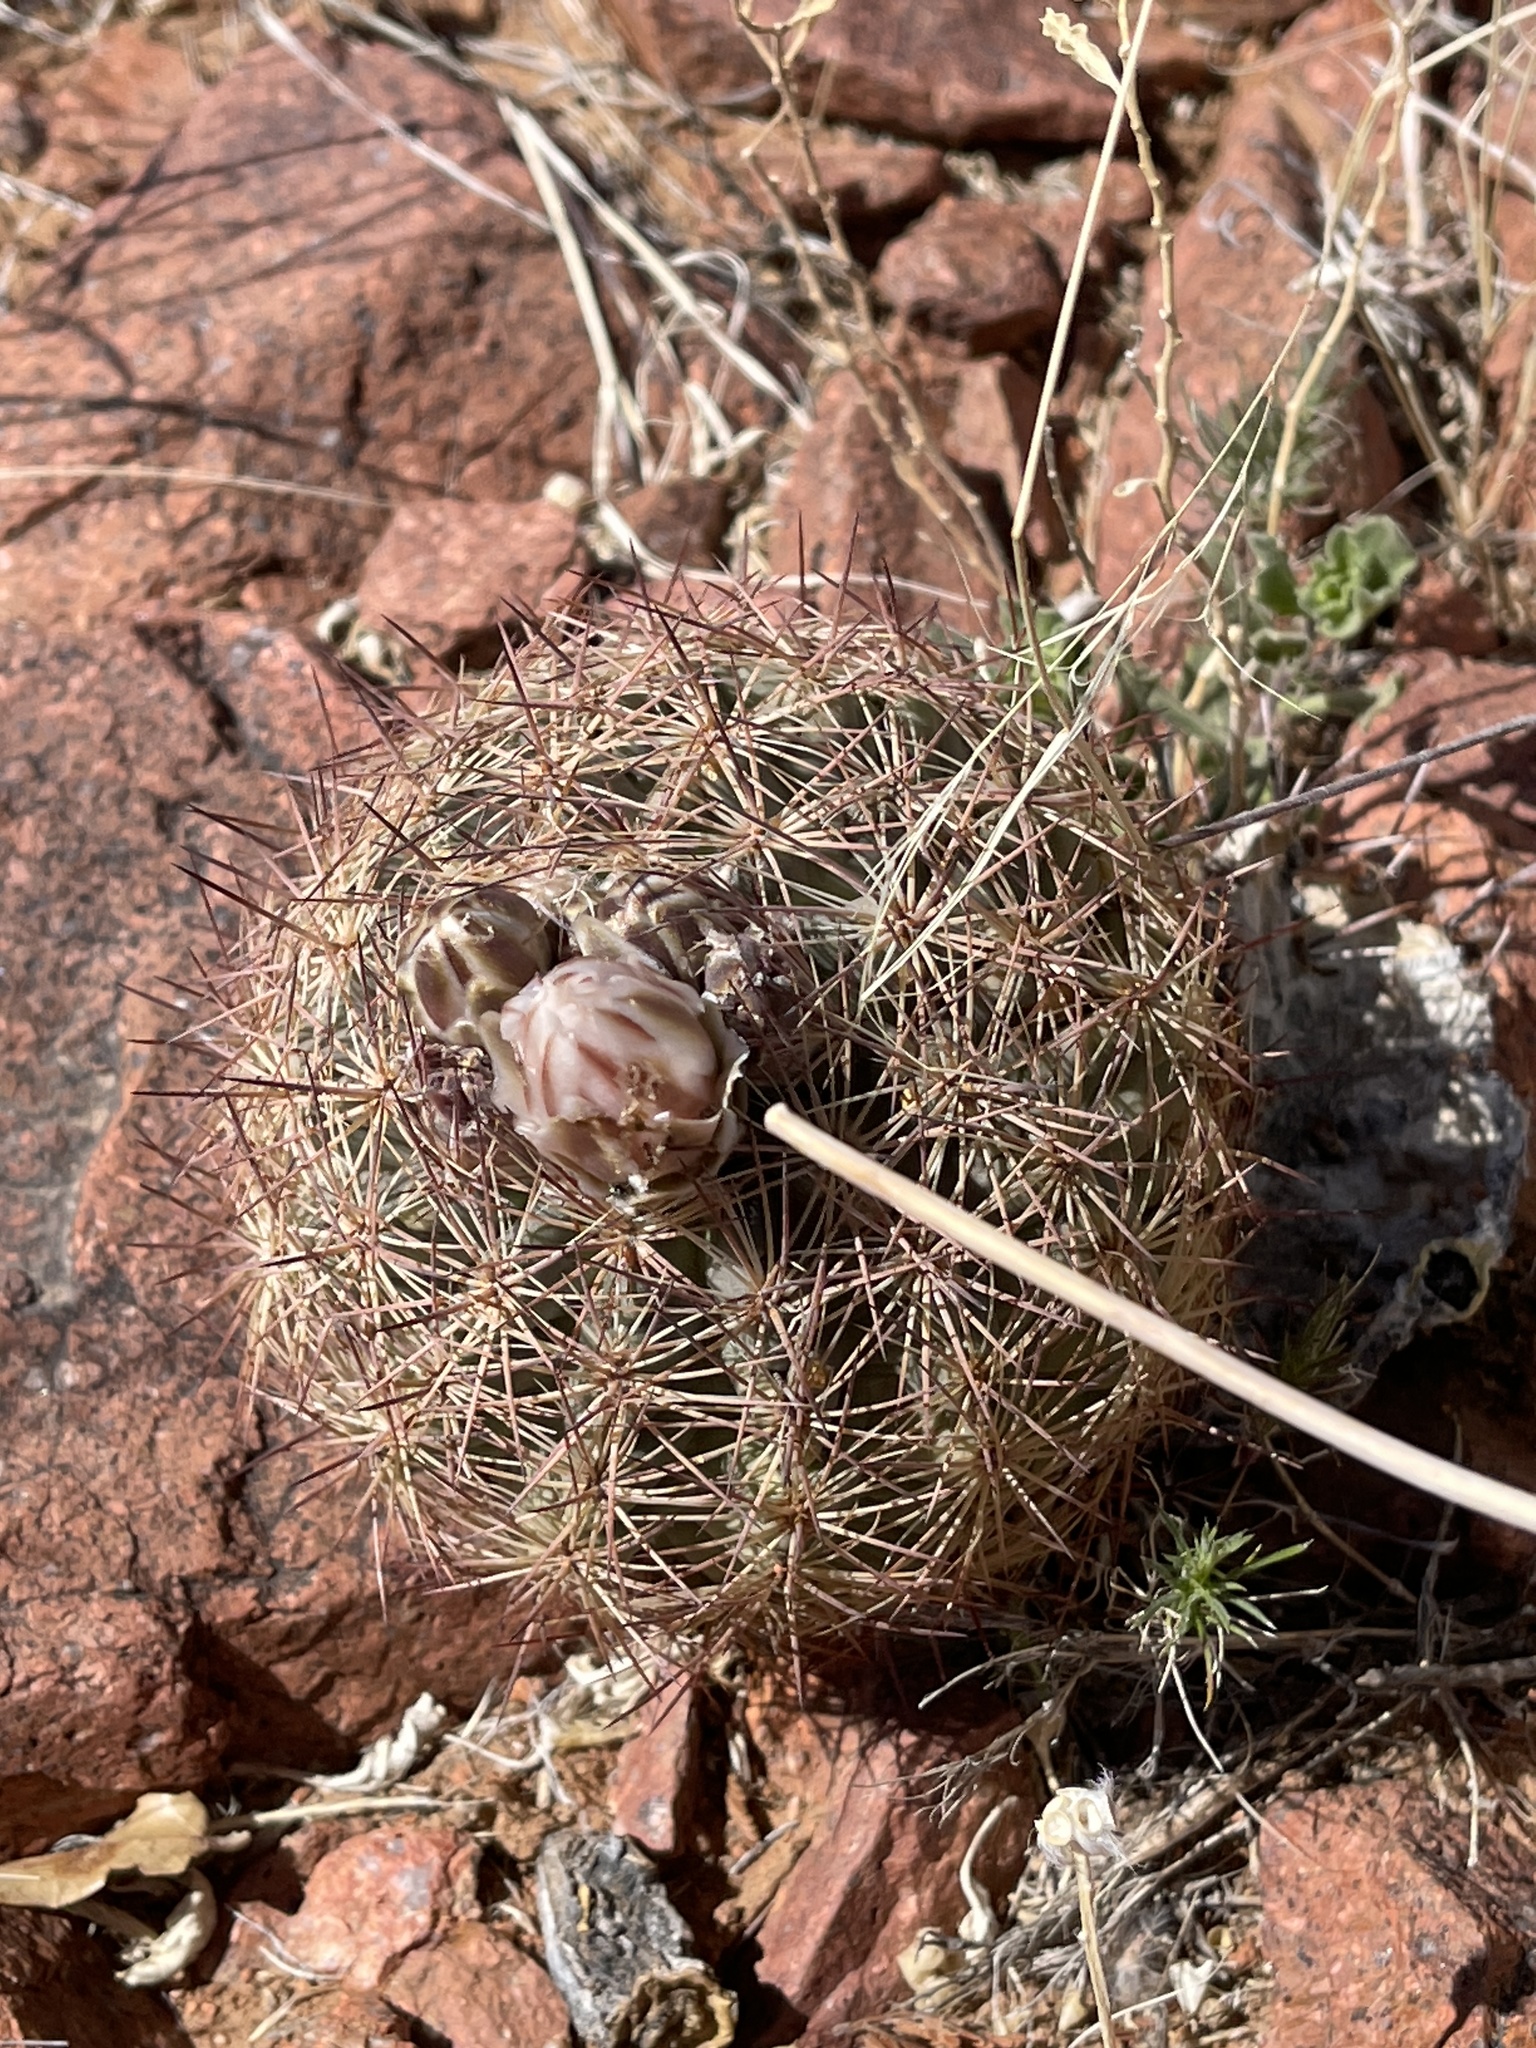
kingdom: Plantae
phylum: Tracheophyta
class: Magnoliopsida
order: Caryophyllales
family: Cactaceae
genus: Sclerocactus
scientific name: Sclerocactus intertextus
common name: White fish-hook cactus
